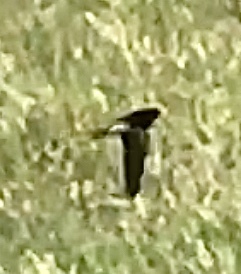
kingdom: Animalia
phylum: Chordata
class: Aves
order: Passeriformes
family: Hirundinidae
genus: Hirundo
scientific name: Hirundo rustica
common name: Barn swallow
